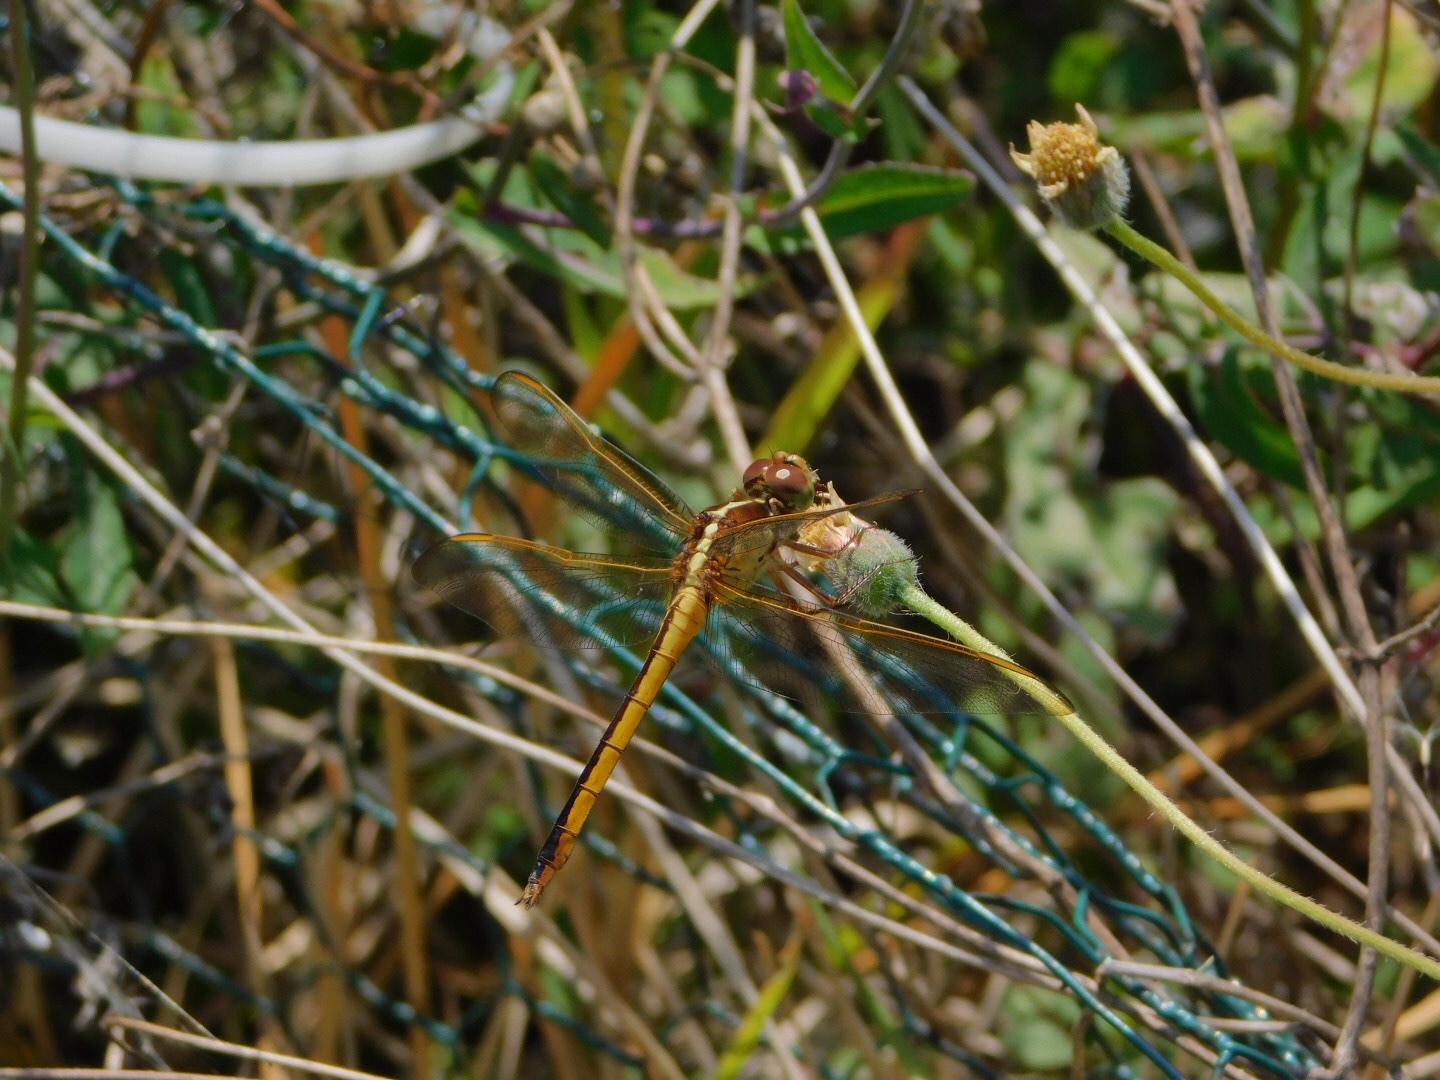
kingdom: Animalia
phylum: Arthropoda
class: Insecta
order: Odonata
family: Libellulidae
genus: Libellula
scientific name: Libellula needhami
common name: Needham's skimmer
